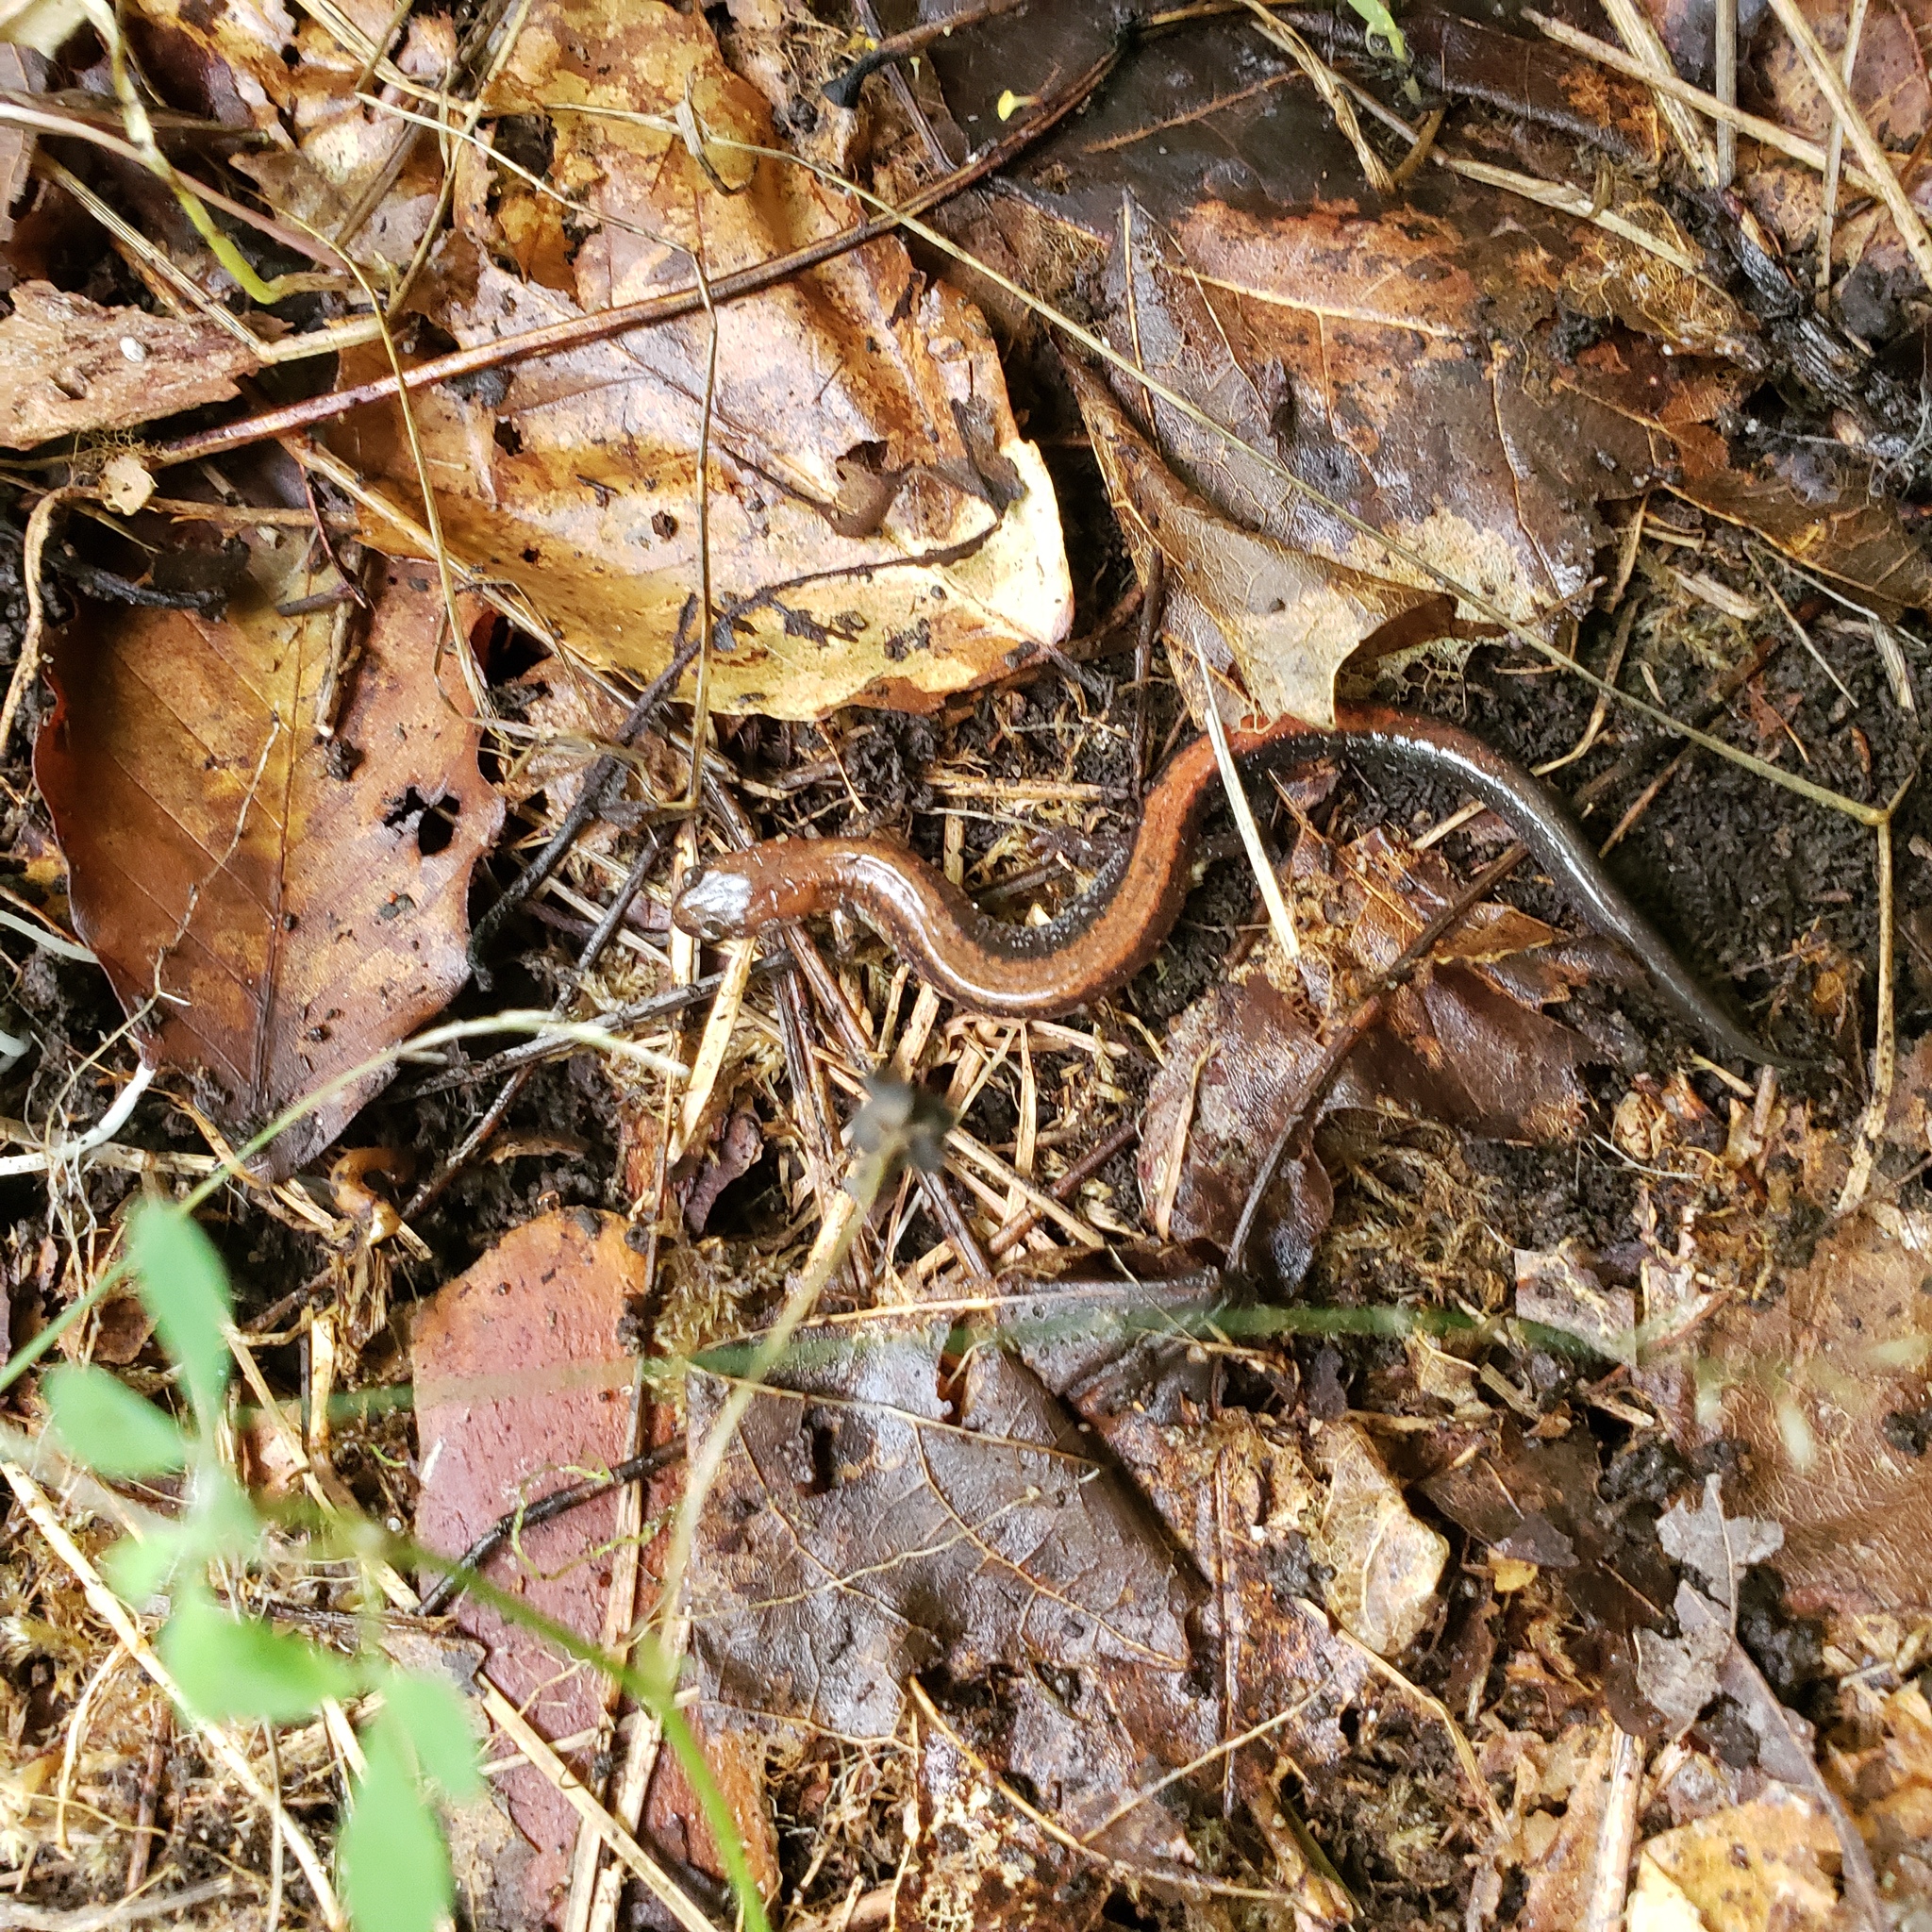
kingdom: Animalia
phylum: Chordata
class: Amphibia
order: Caudata
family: Plethodontidae
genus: Plethodon
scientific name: Plethodon cinereus
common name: Redback salamander
